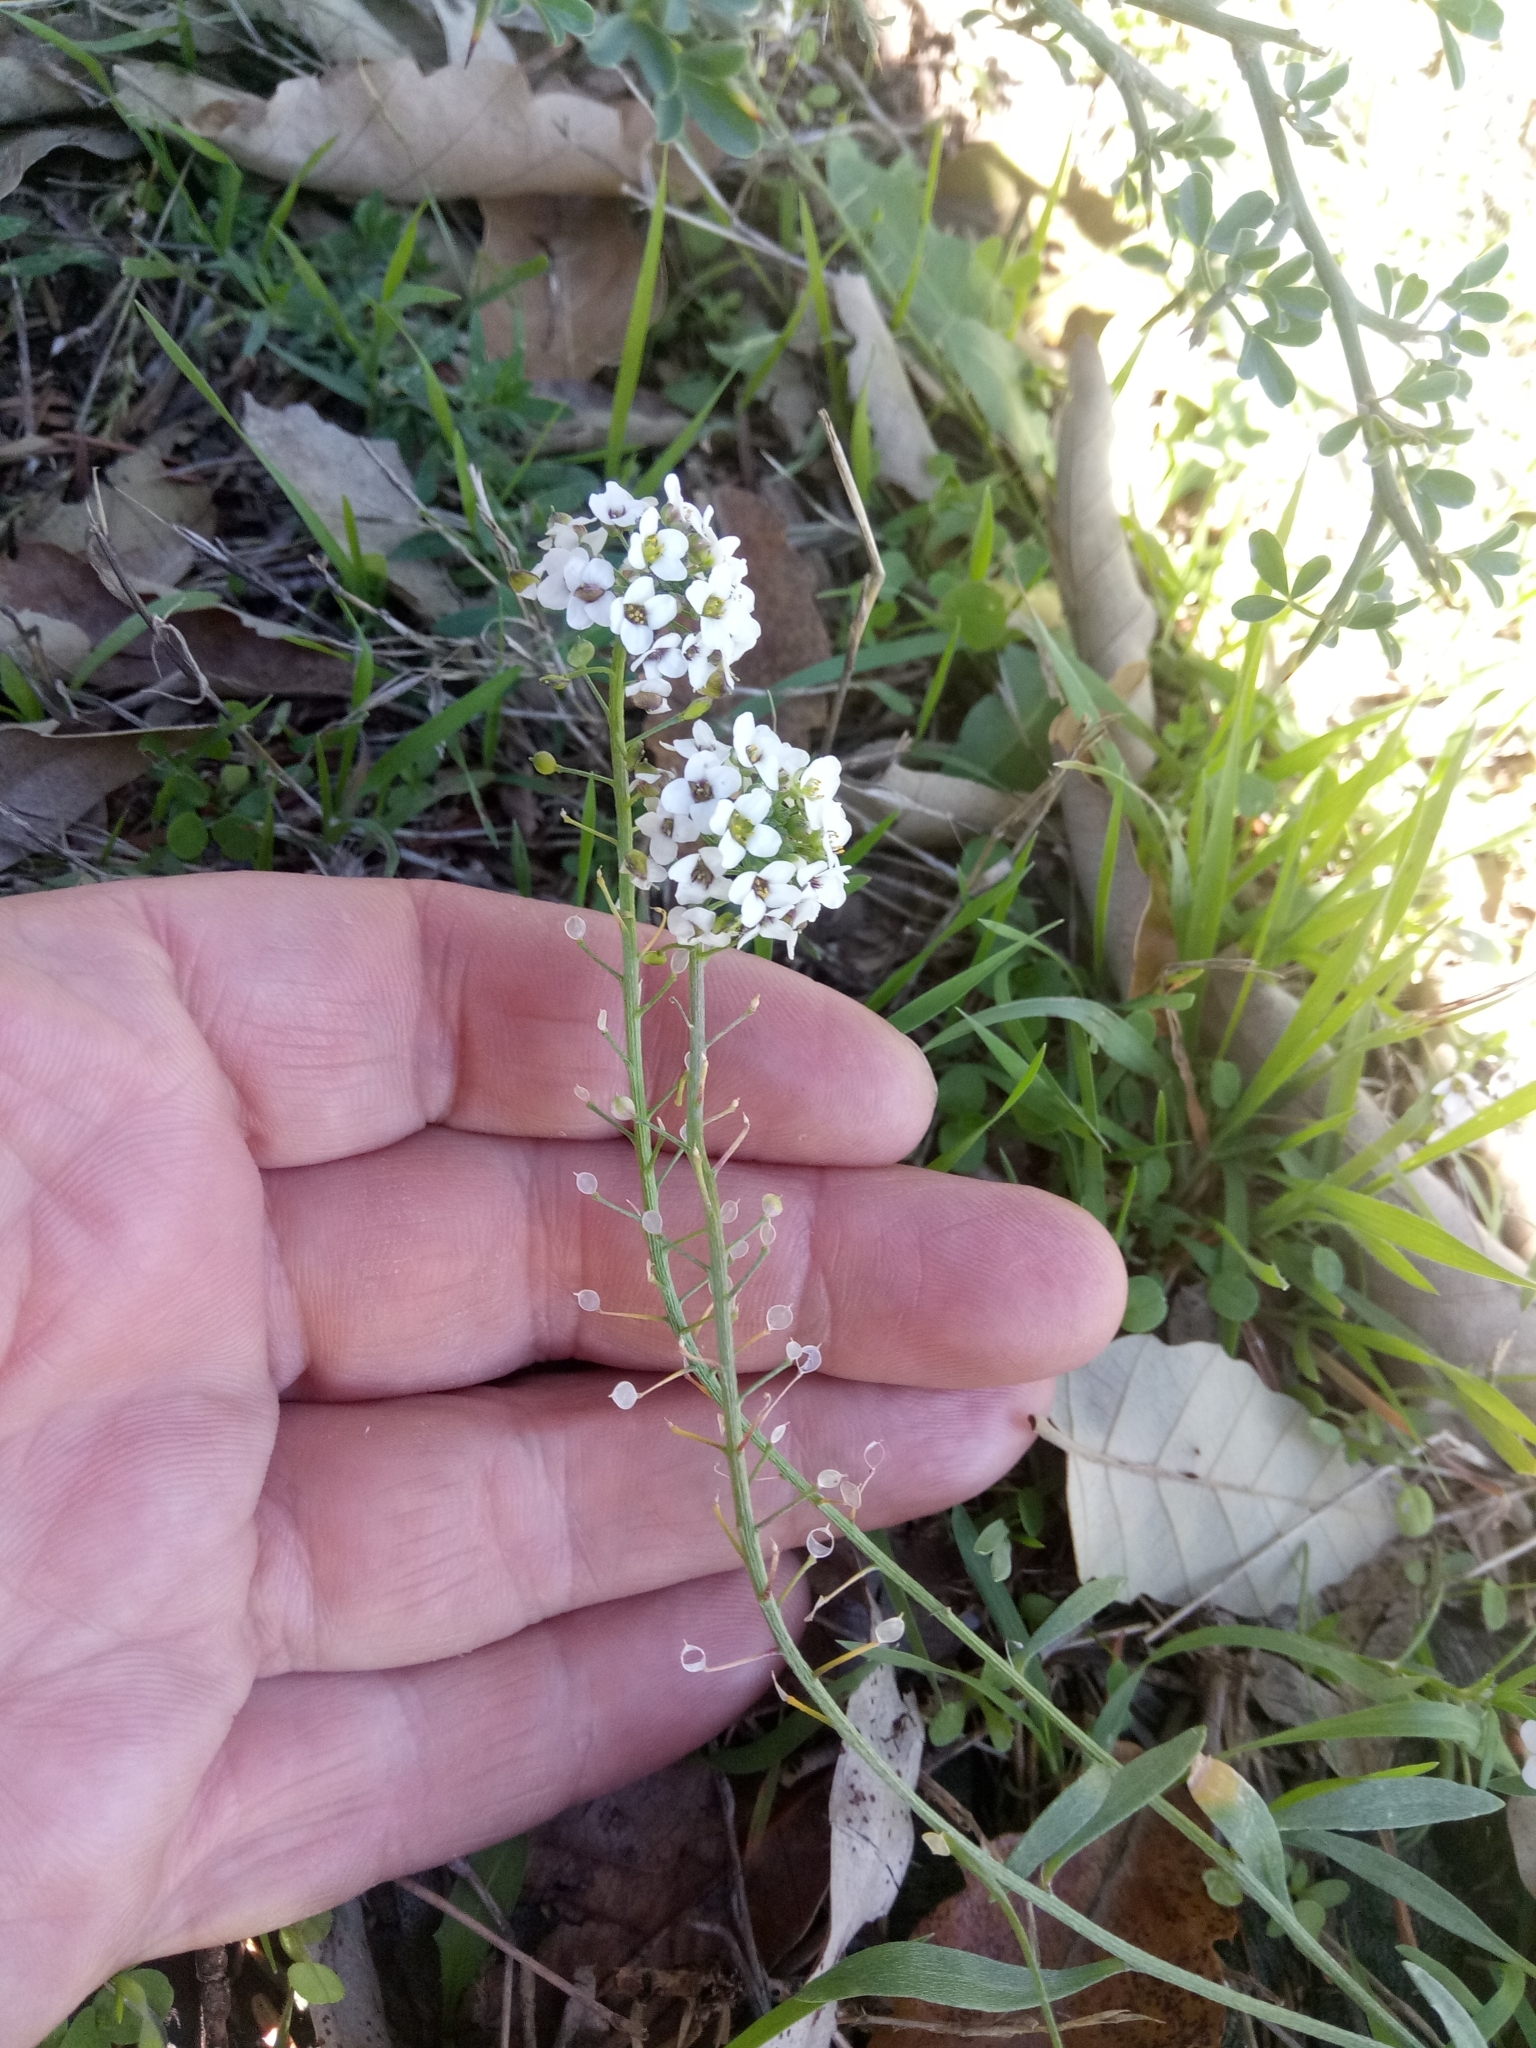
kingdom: Plantae
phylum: Tracheophyta
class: Magnoliopsida
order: Brassicales
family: Brassicaceae
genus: Lobularia
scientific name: Lobularia maritima
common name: Sweet alison
